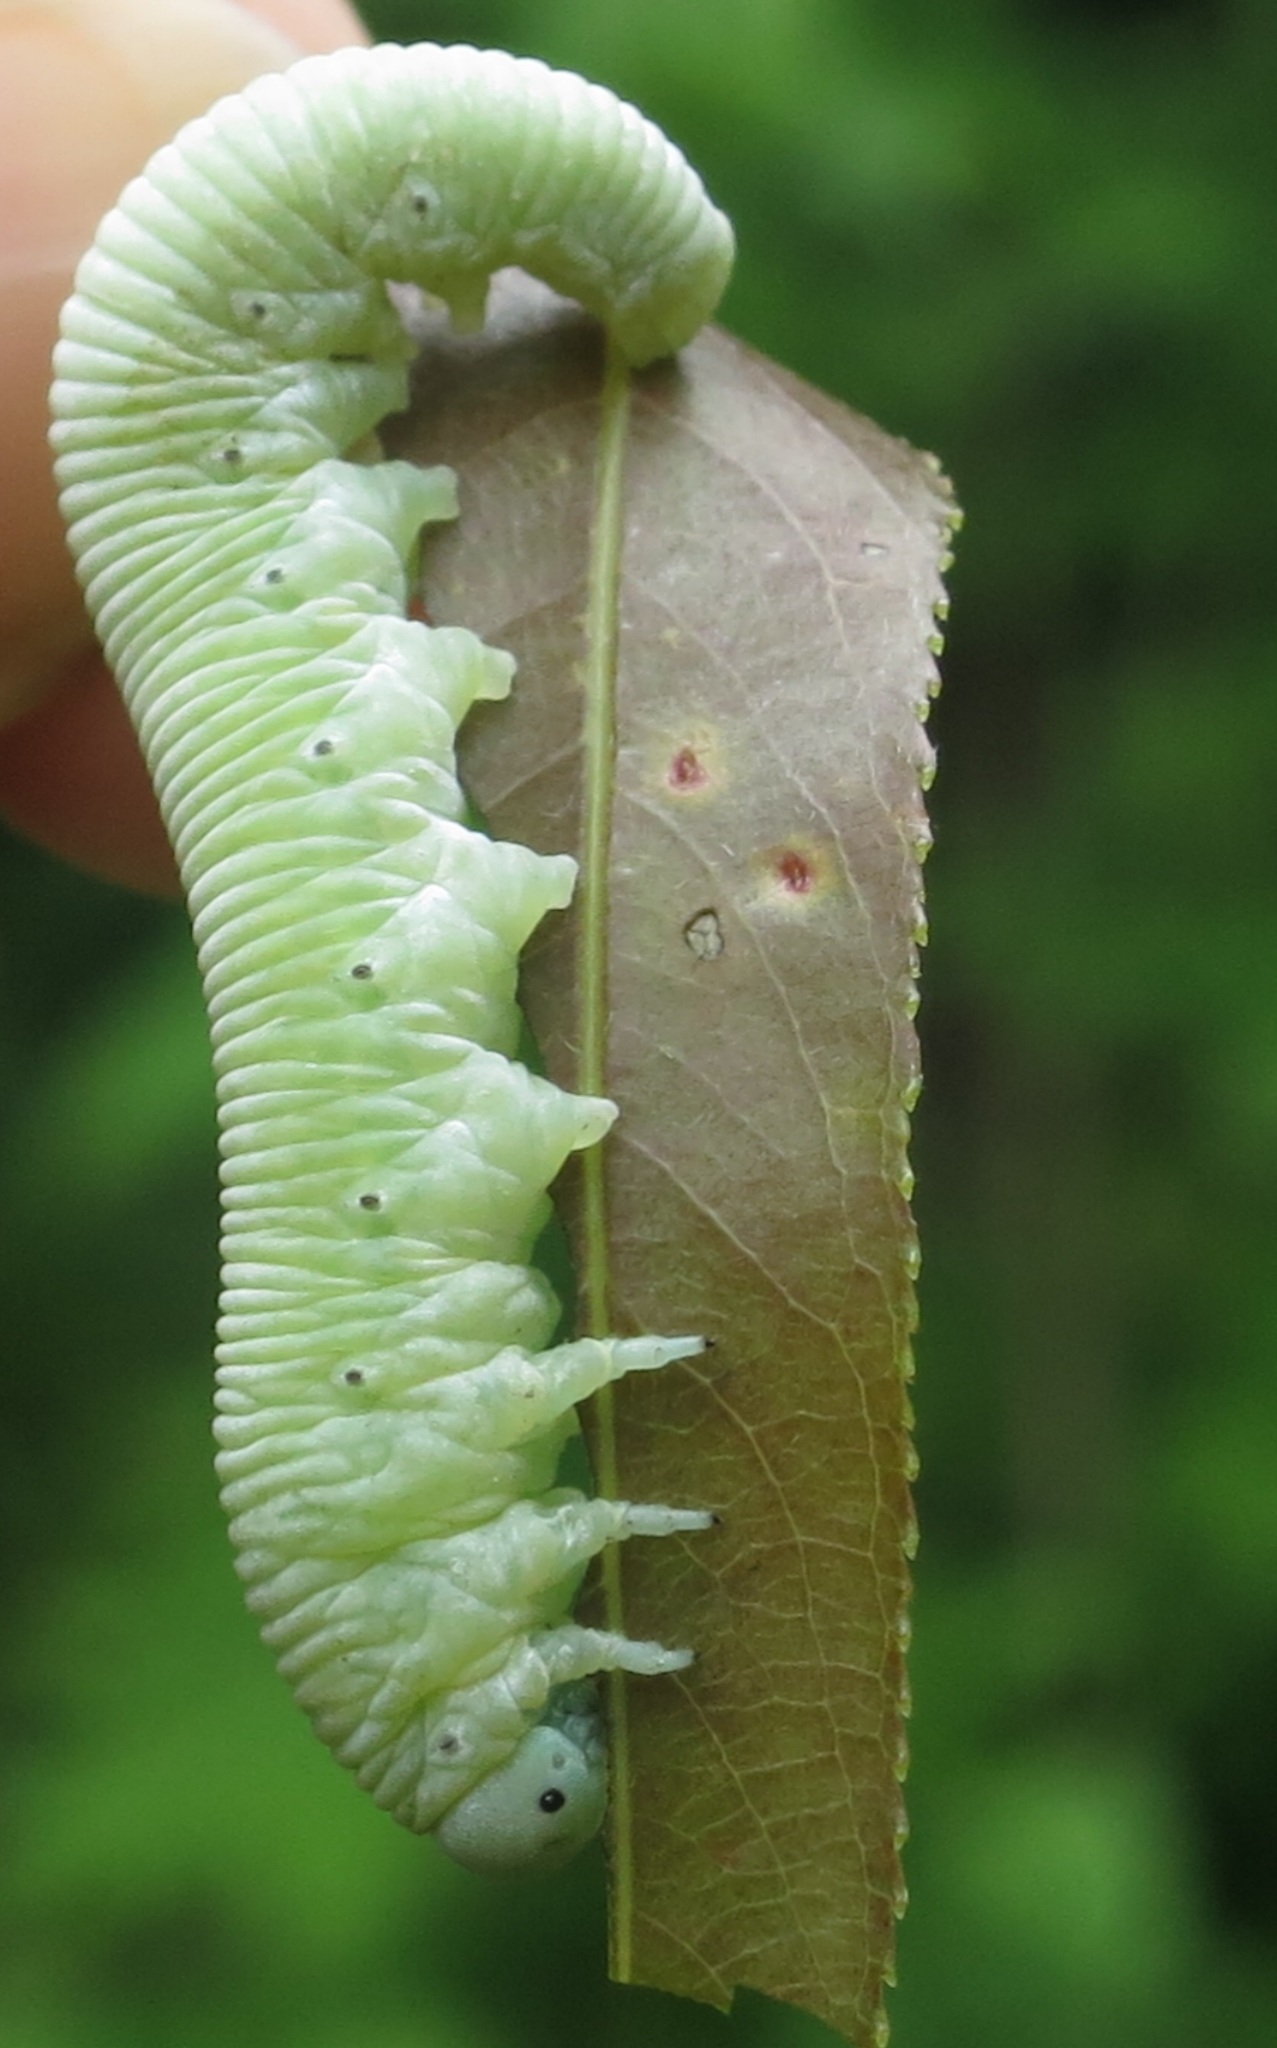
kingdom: Animalia
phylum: Arthropoda
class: Insecta
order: Hymenoptera
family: Cimbicidae
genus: Pseudoclavellaria
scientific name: Pseudoclavellaria amerinae
